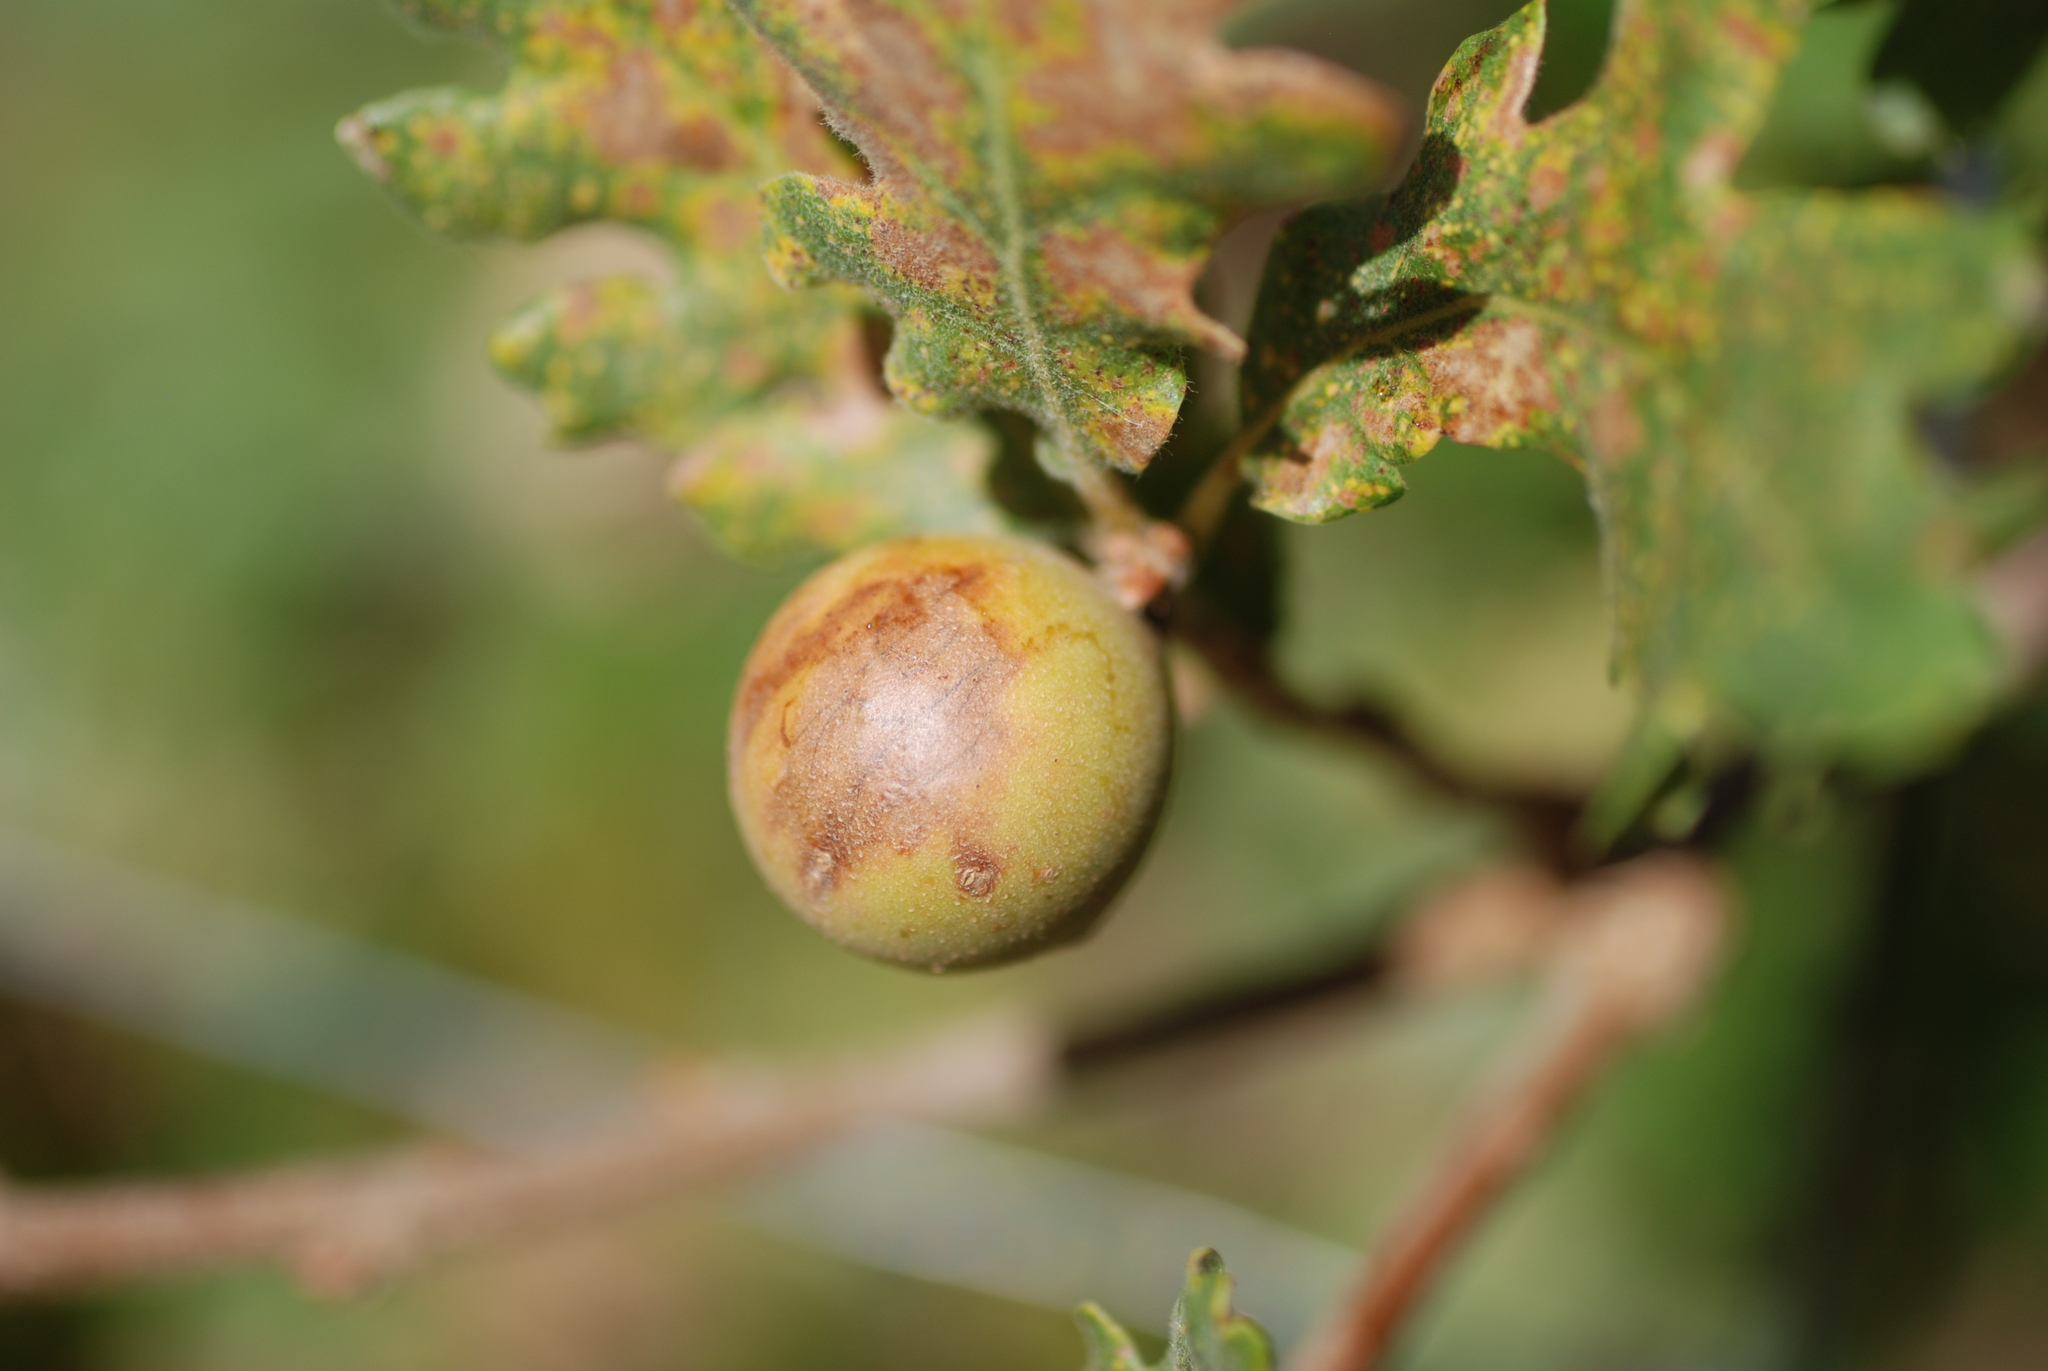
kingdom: Animalia
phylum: Arthropoda
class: Insecta
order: Hymenoptera
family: Cynipidae
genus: Andricus
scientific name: Andricus kollari
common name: Marble gall
